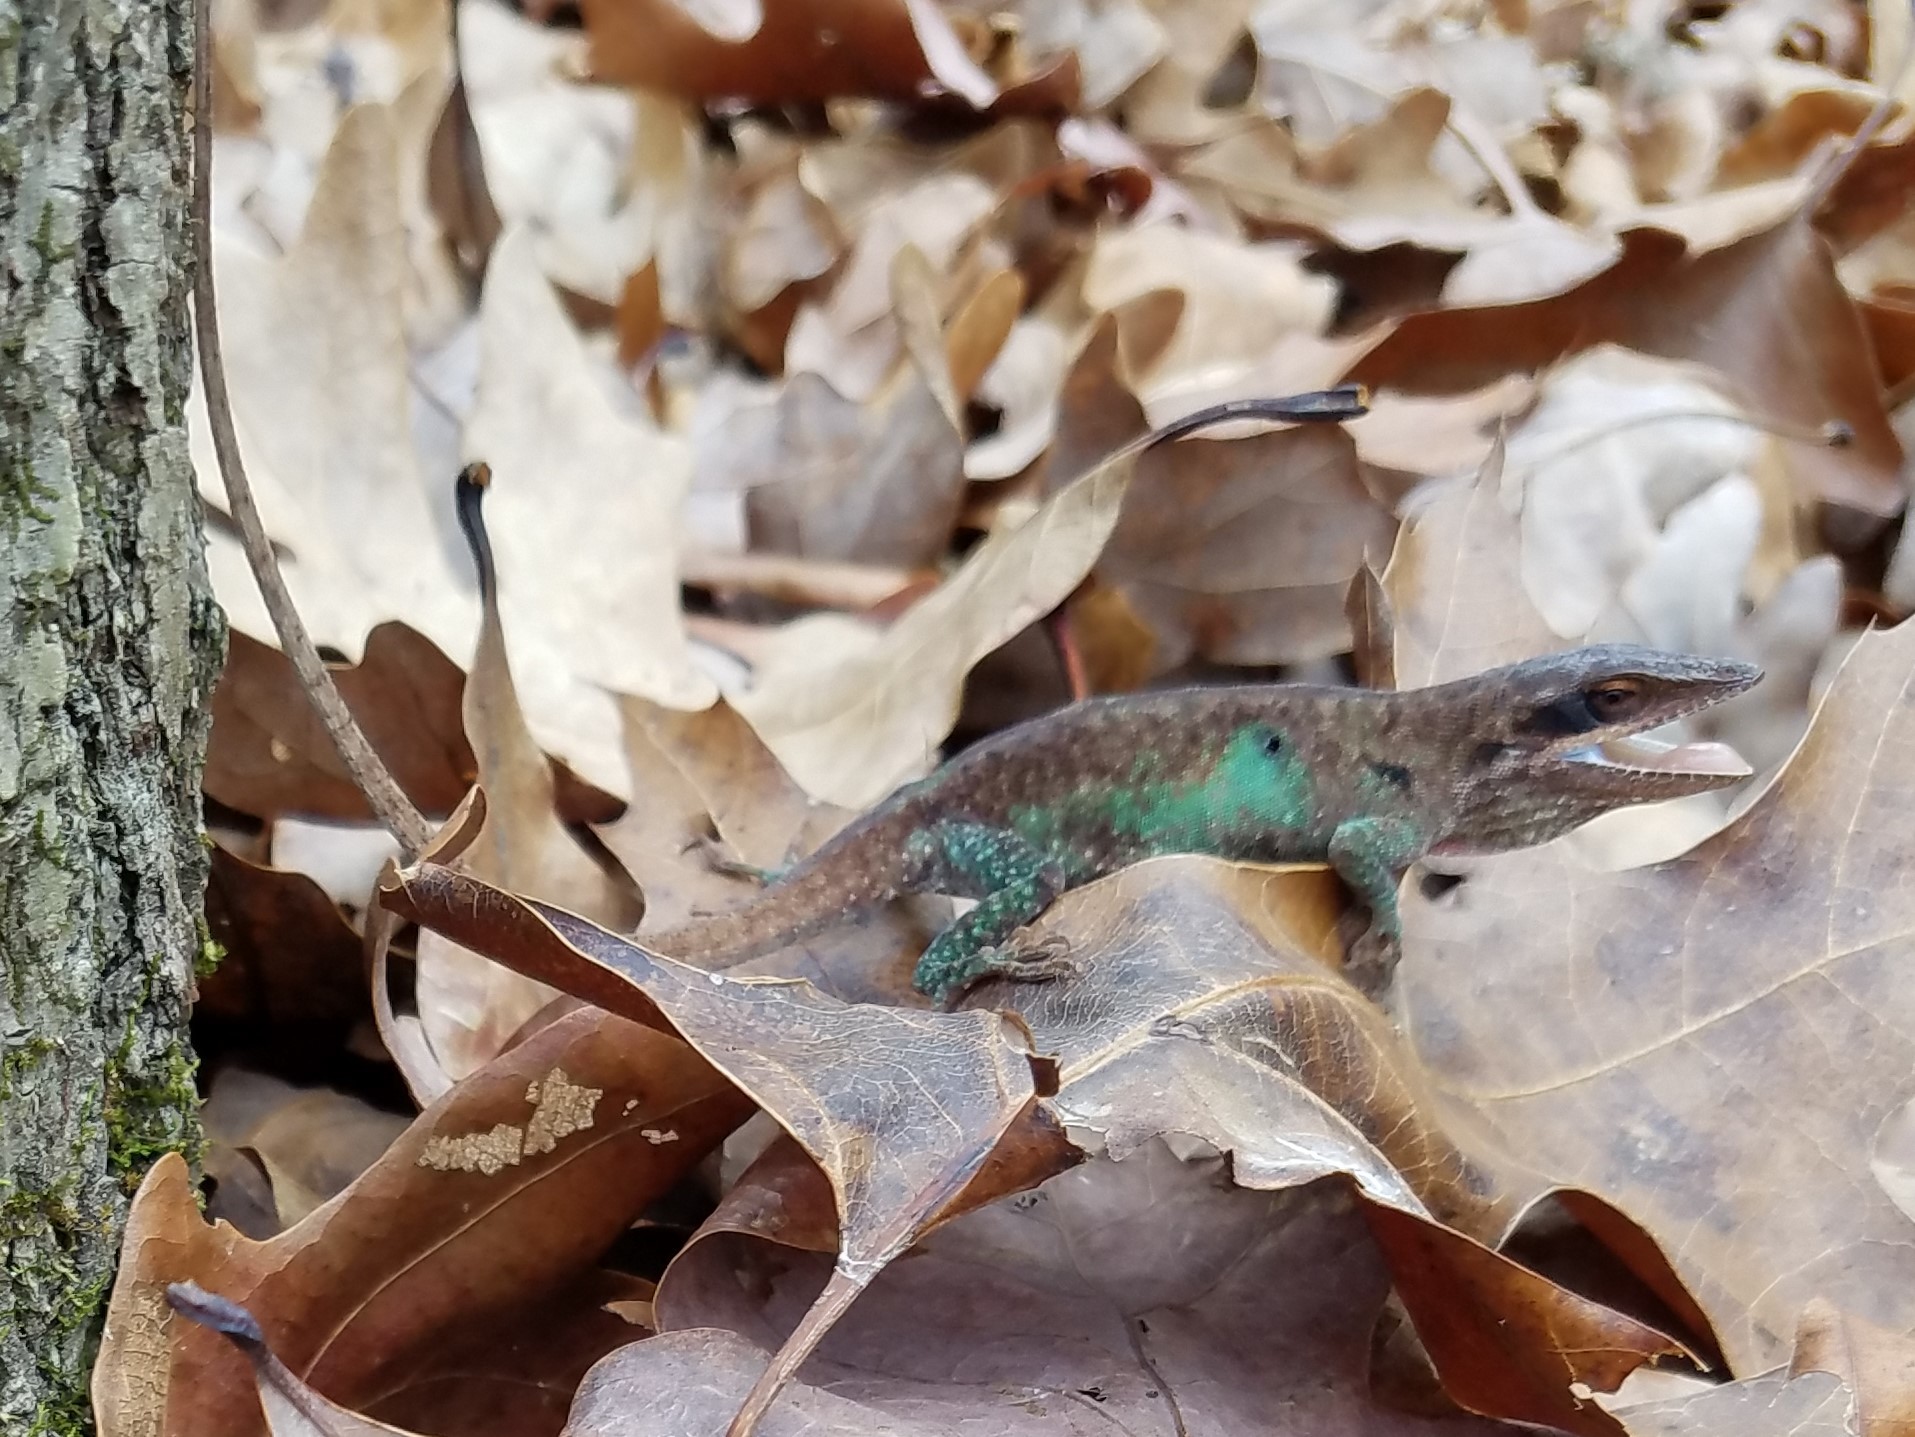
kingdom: Animalia
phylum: Chordata
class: Squamata
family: Dactyloidae
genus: Anolis
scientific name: Anolis carolinensis
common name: Green anole
